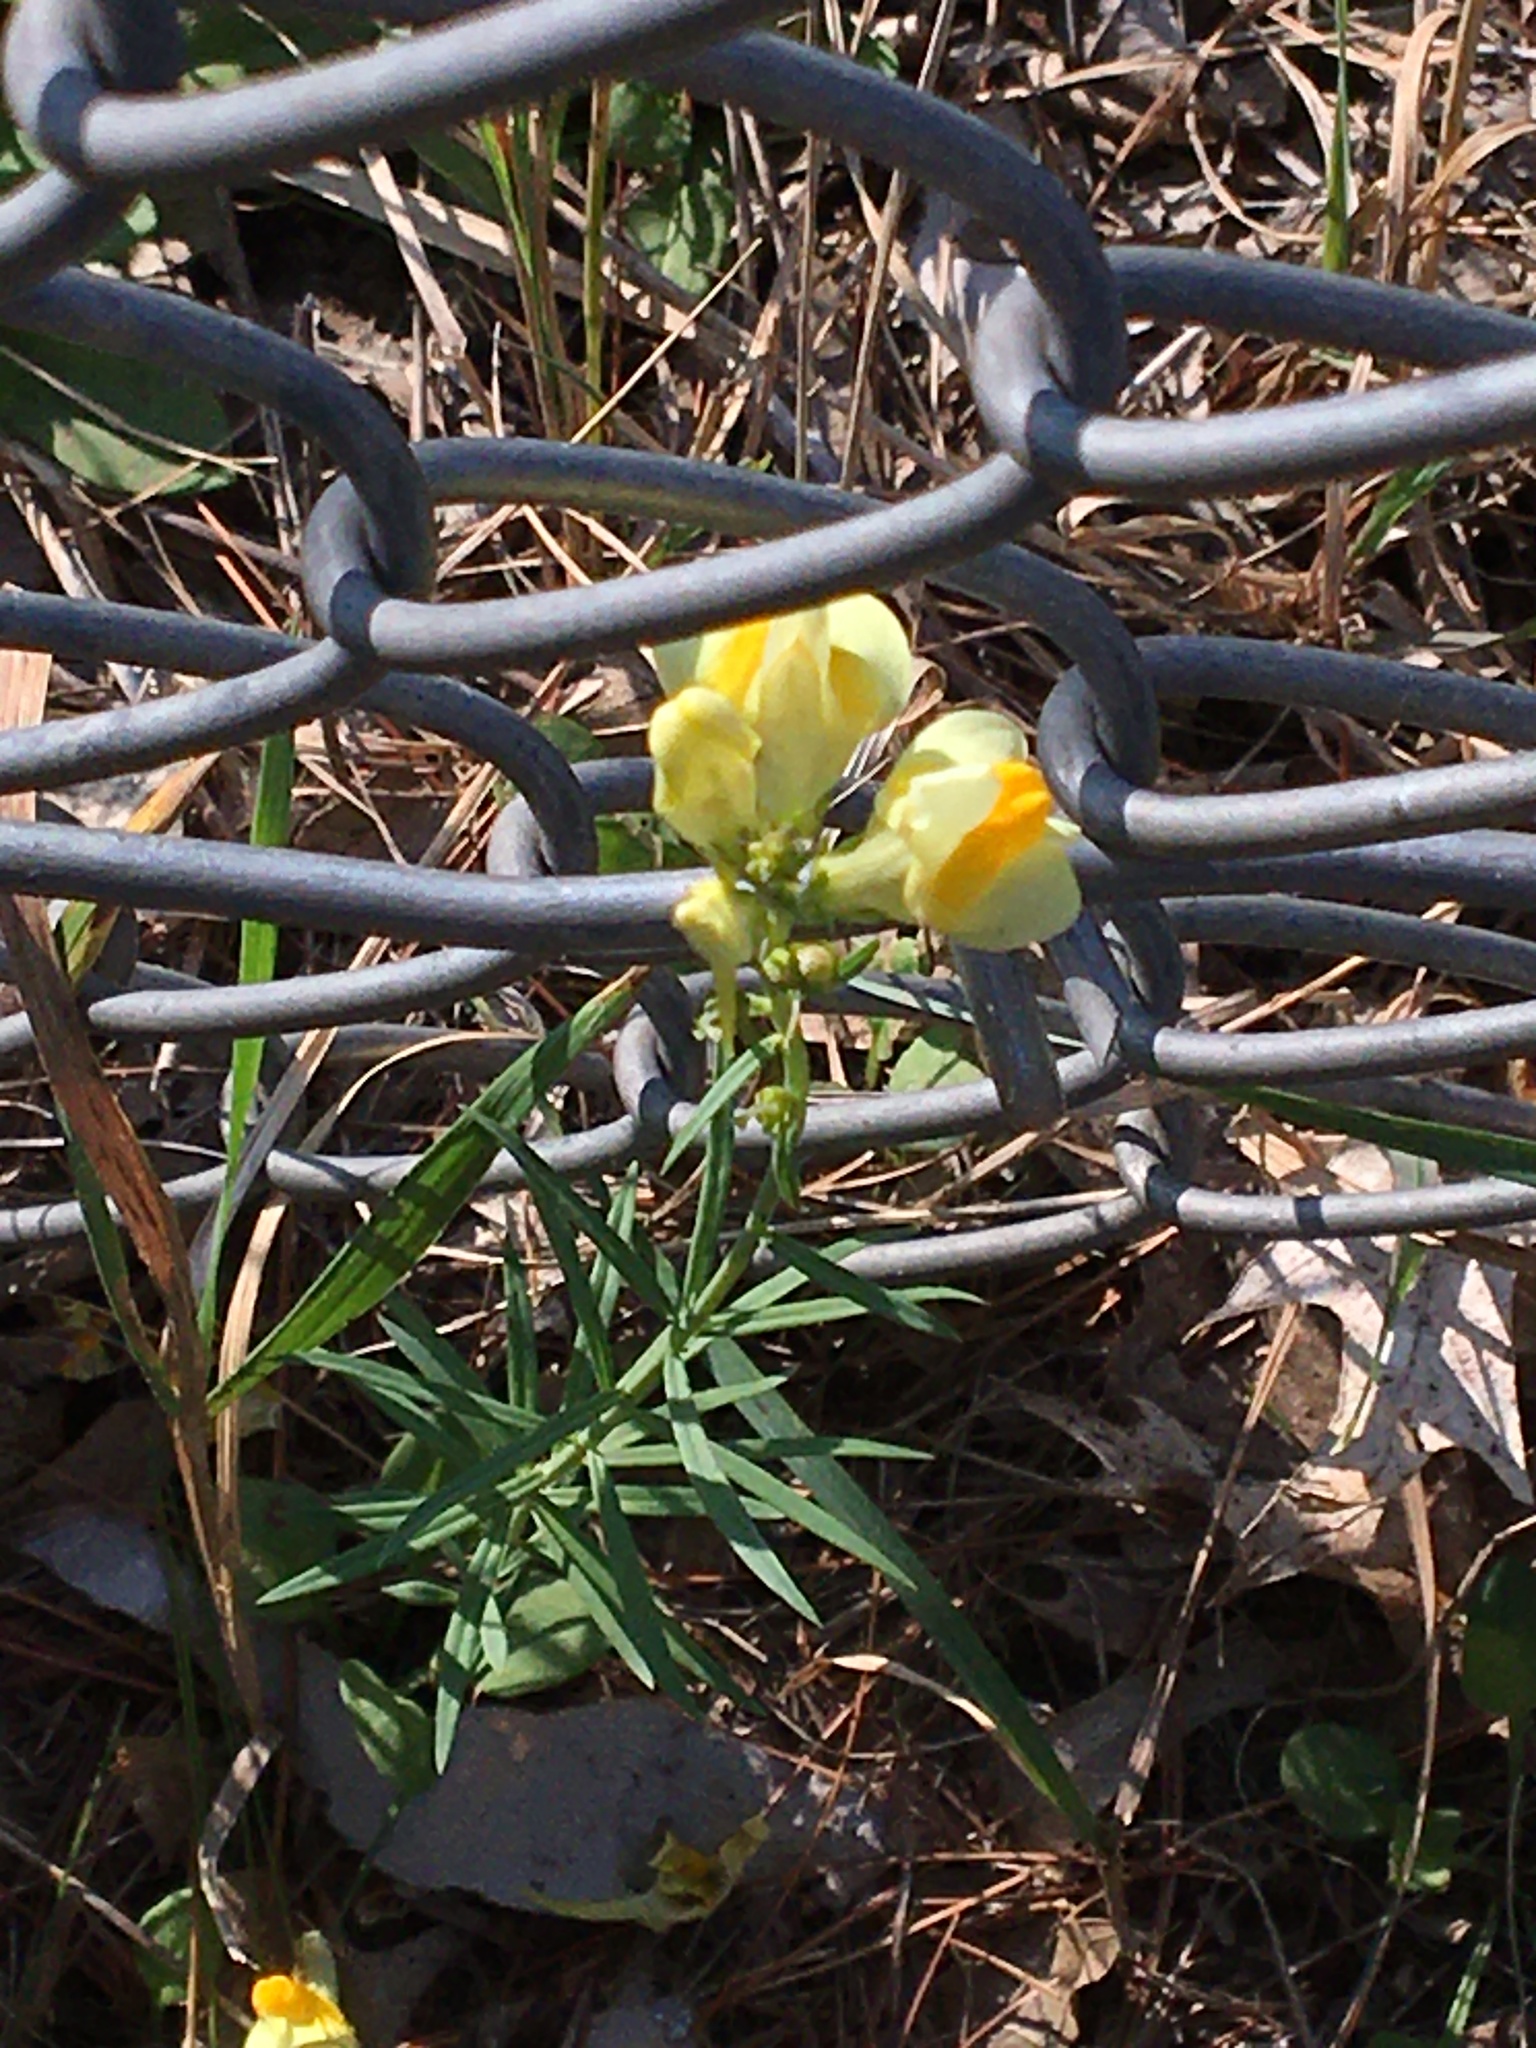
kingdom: Plantae
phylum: Tracheophyta
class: Magnoliopsida
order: Lamiales
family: Plantaginaceae
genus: Linaria
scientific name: Linaria vulgaris
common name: Butter and eggs
